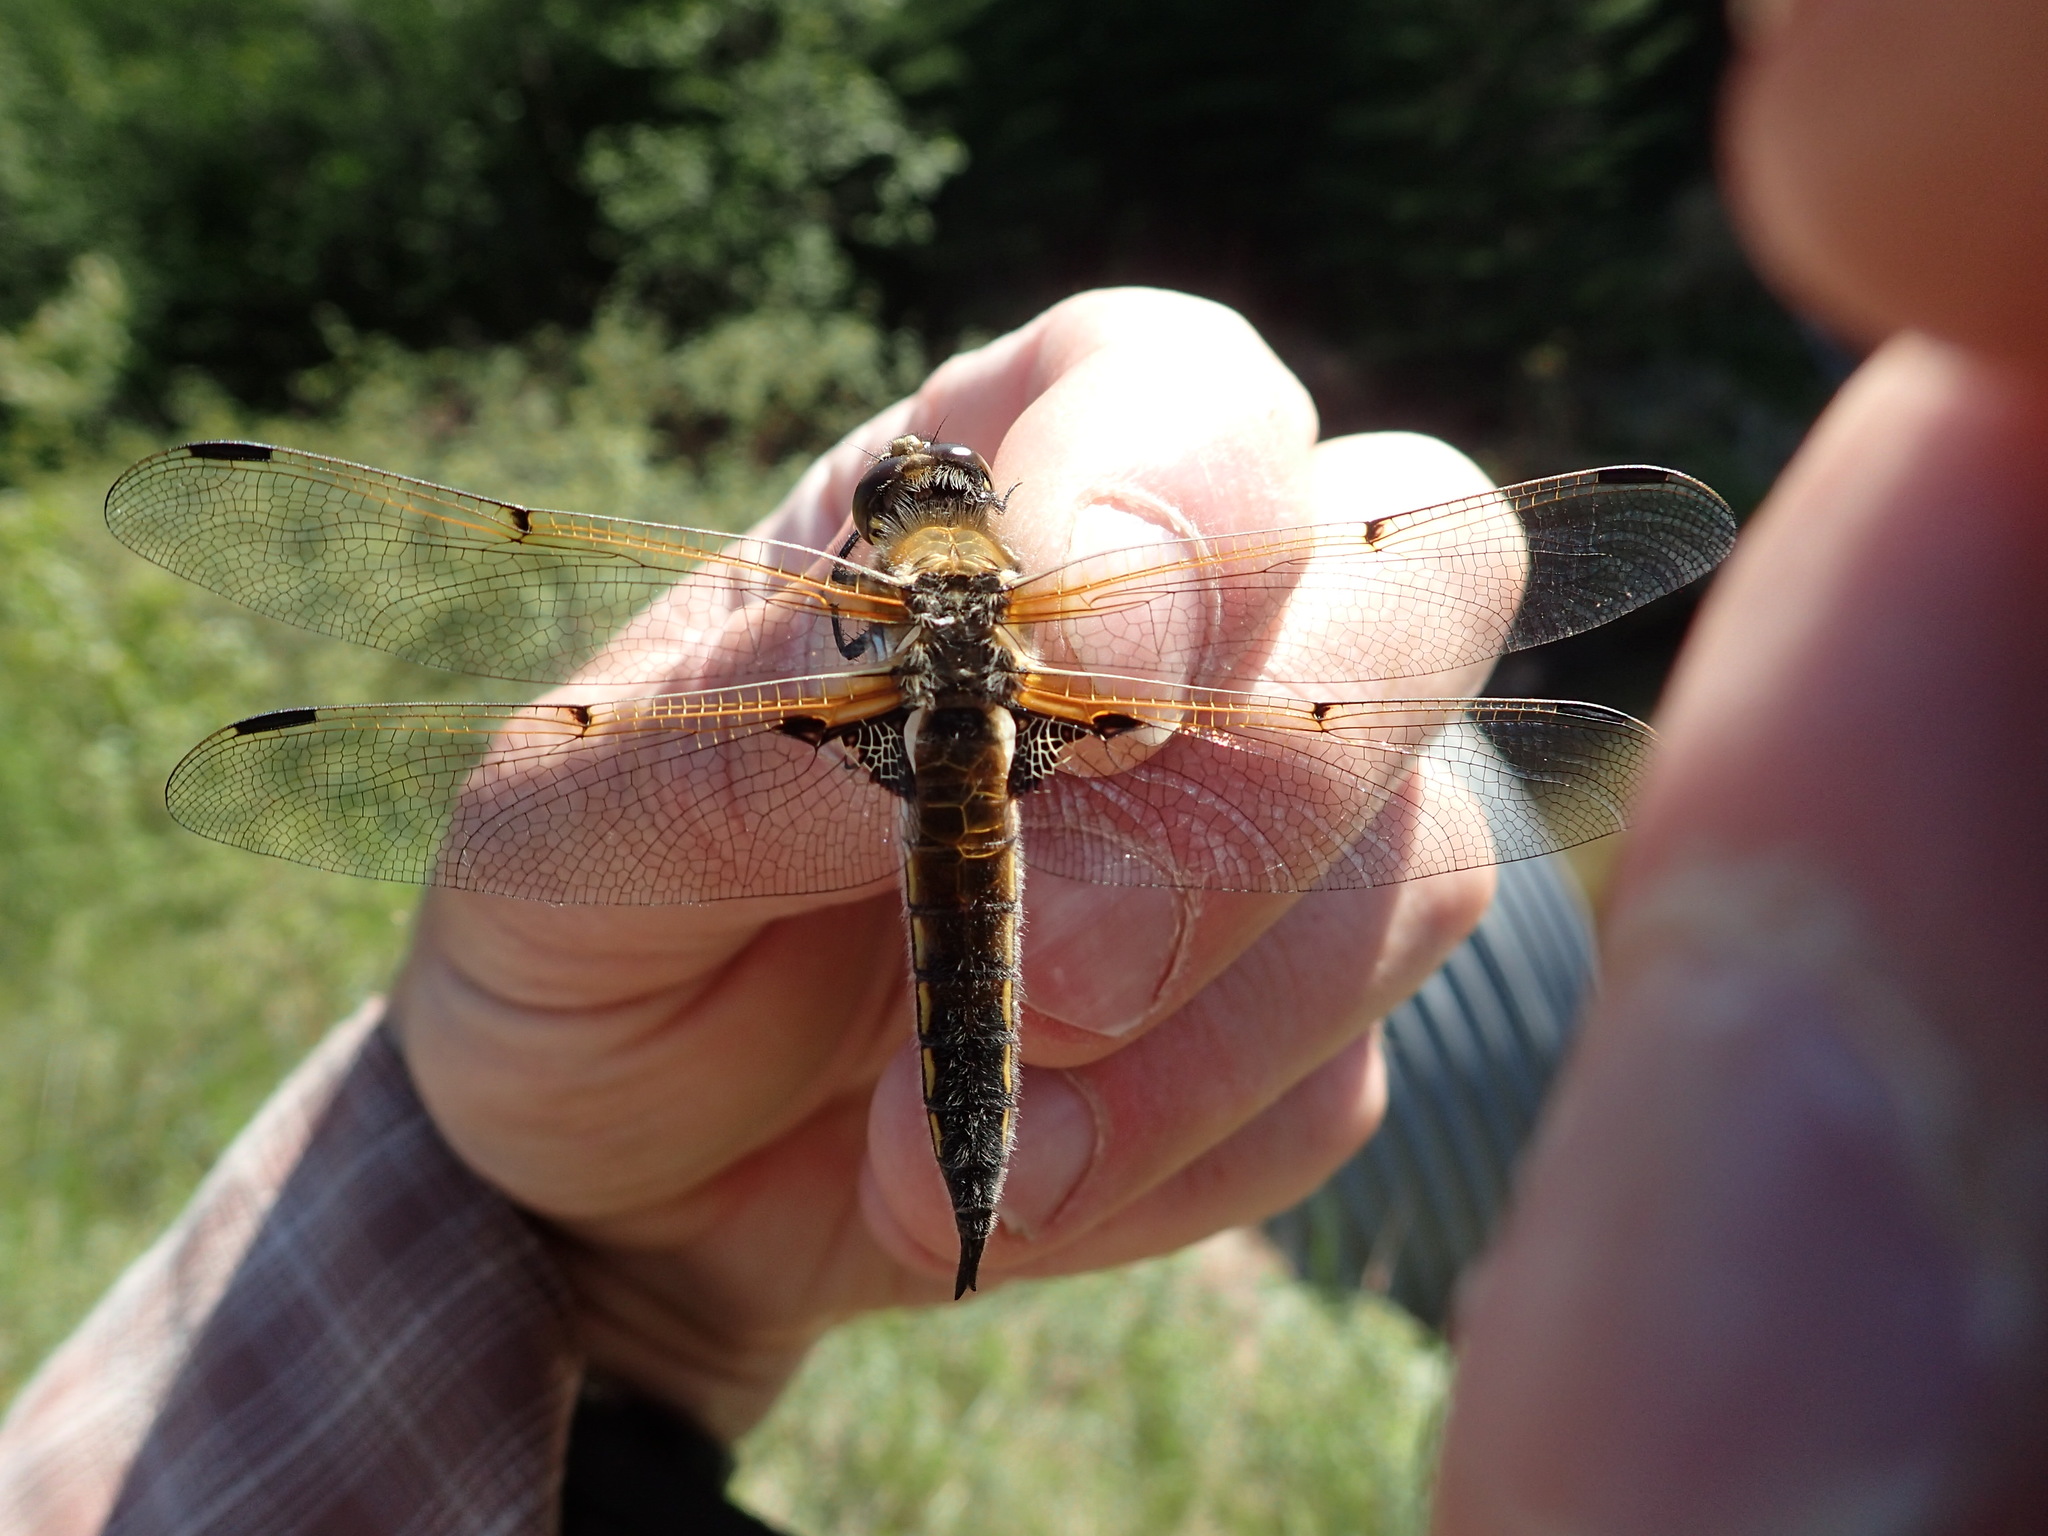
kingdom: Animalia
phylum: Arthropoda
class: Insecta
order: Odonata
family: Libellulidae
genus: Libellula
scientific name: Libellula quadrimaculata
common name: Four-spotted chaser
